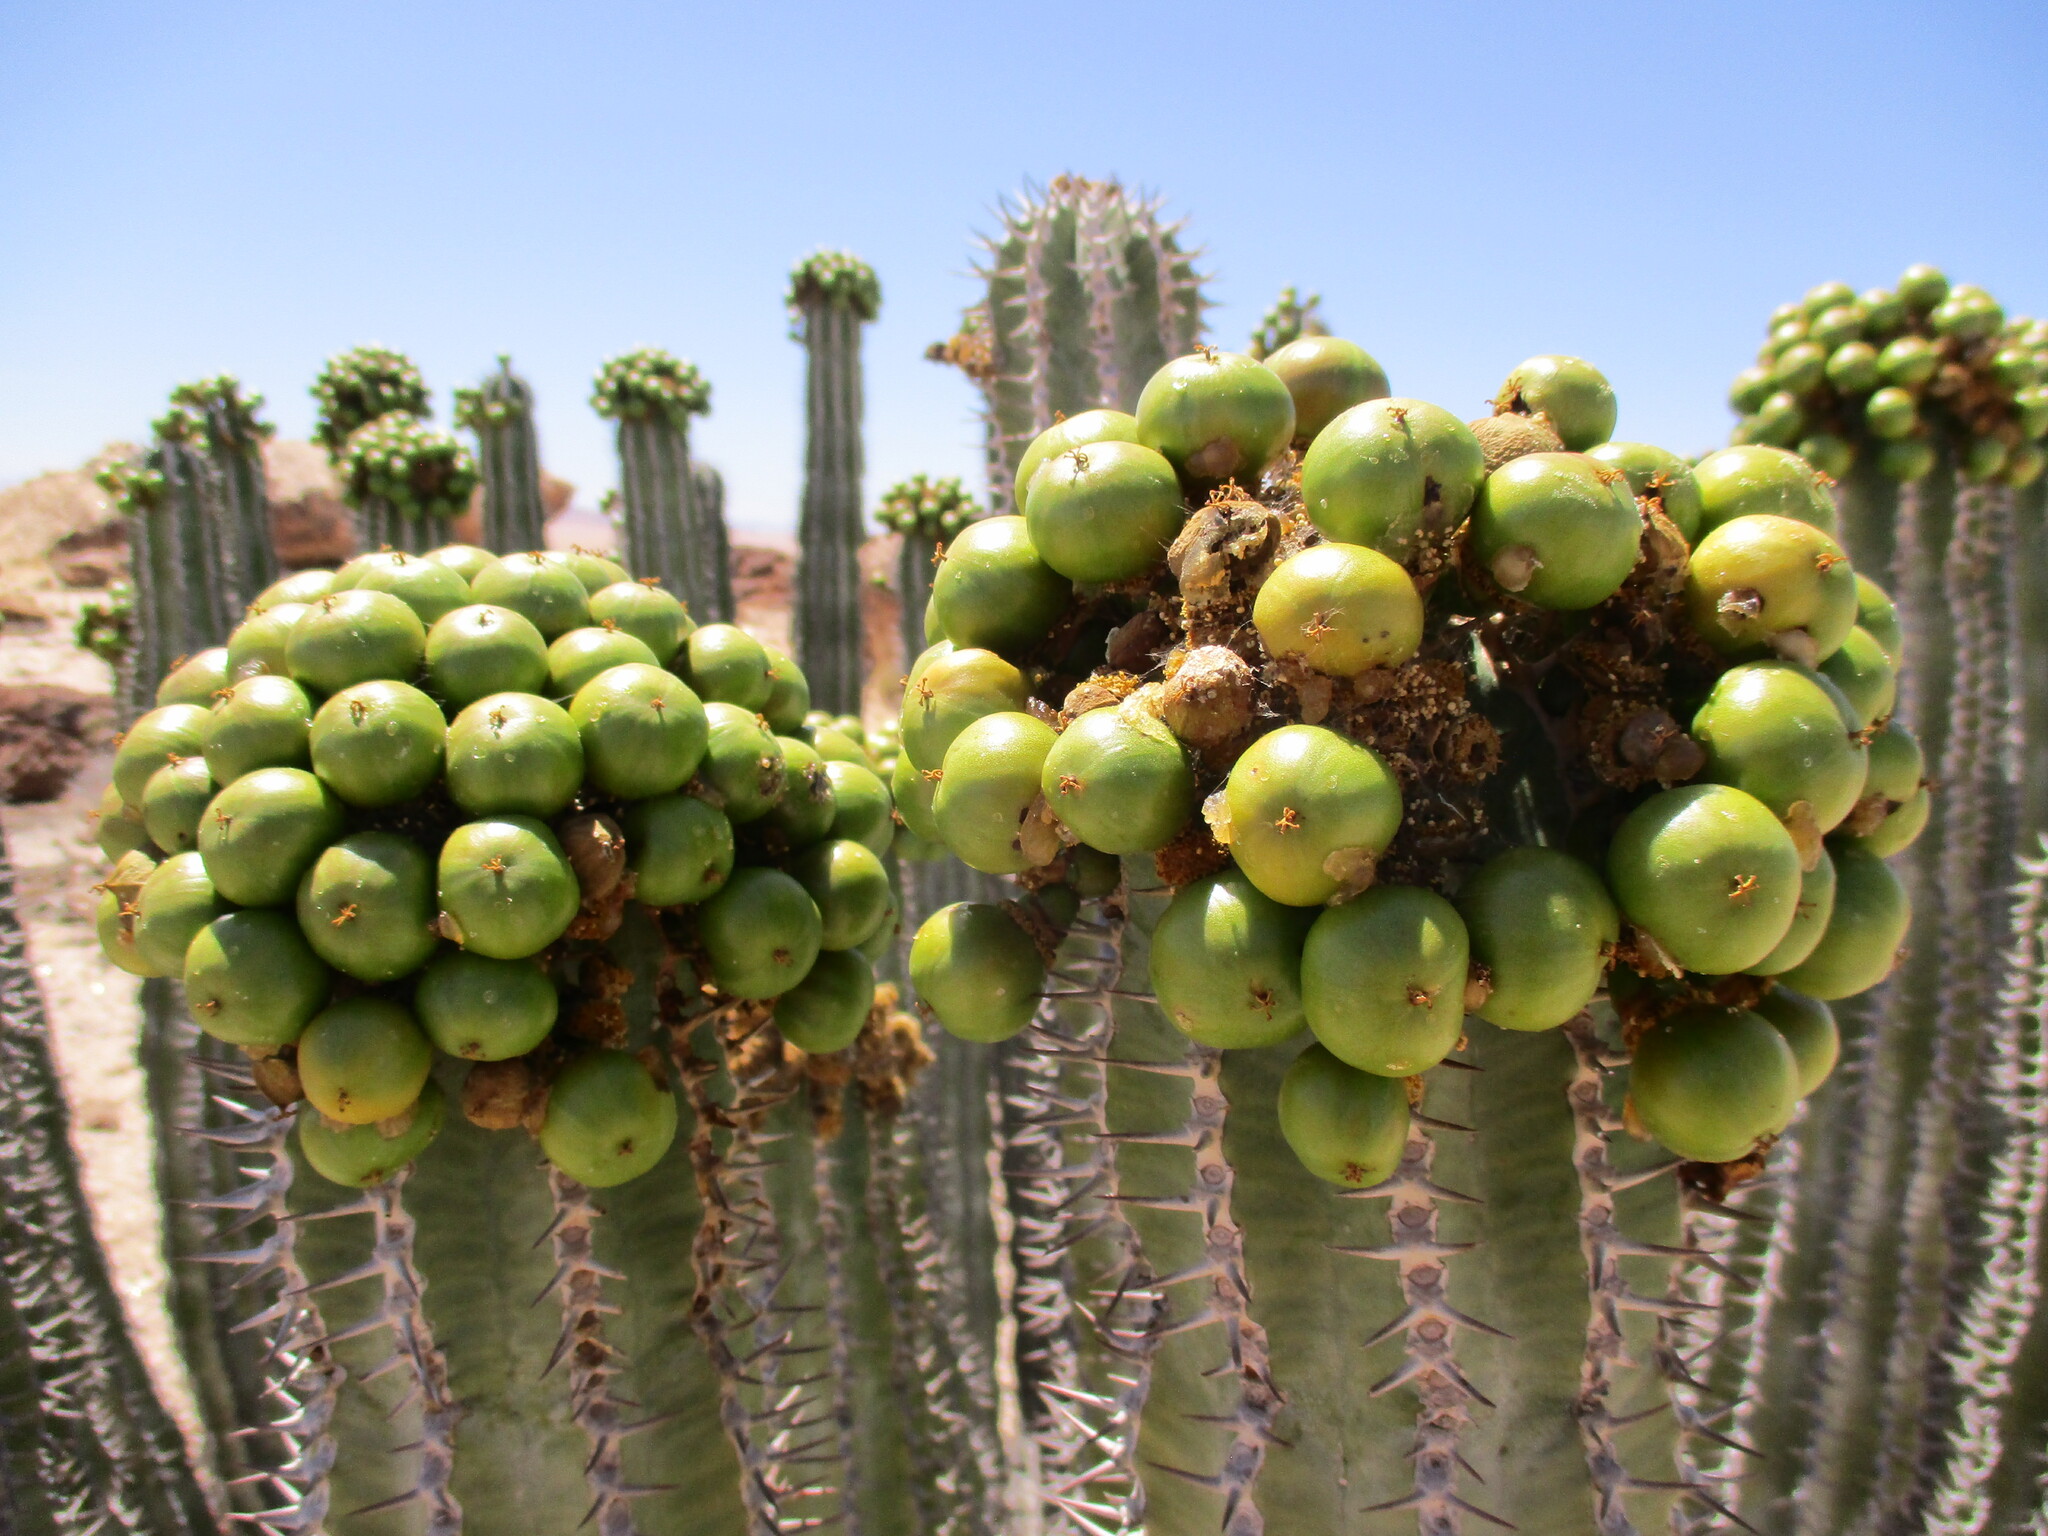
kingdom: Plantae
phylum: Tracheophyta
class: Magnoliopsida
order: Malpighiales
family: Euphorbiaceae
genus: Euphorbia
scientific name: Euphorbia virosa
